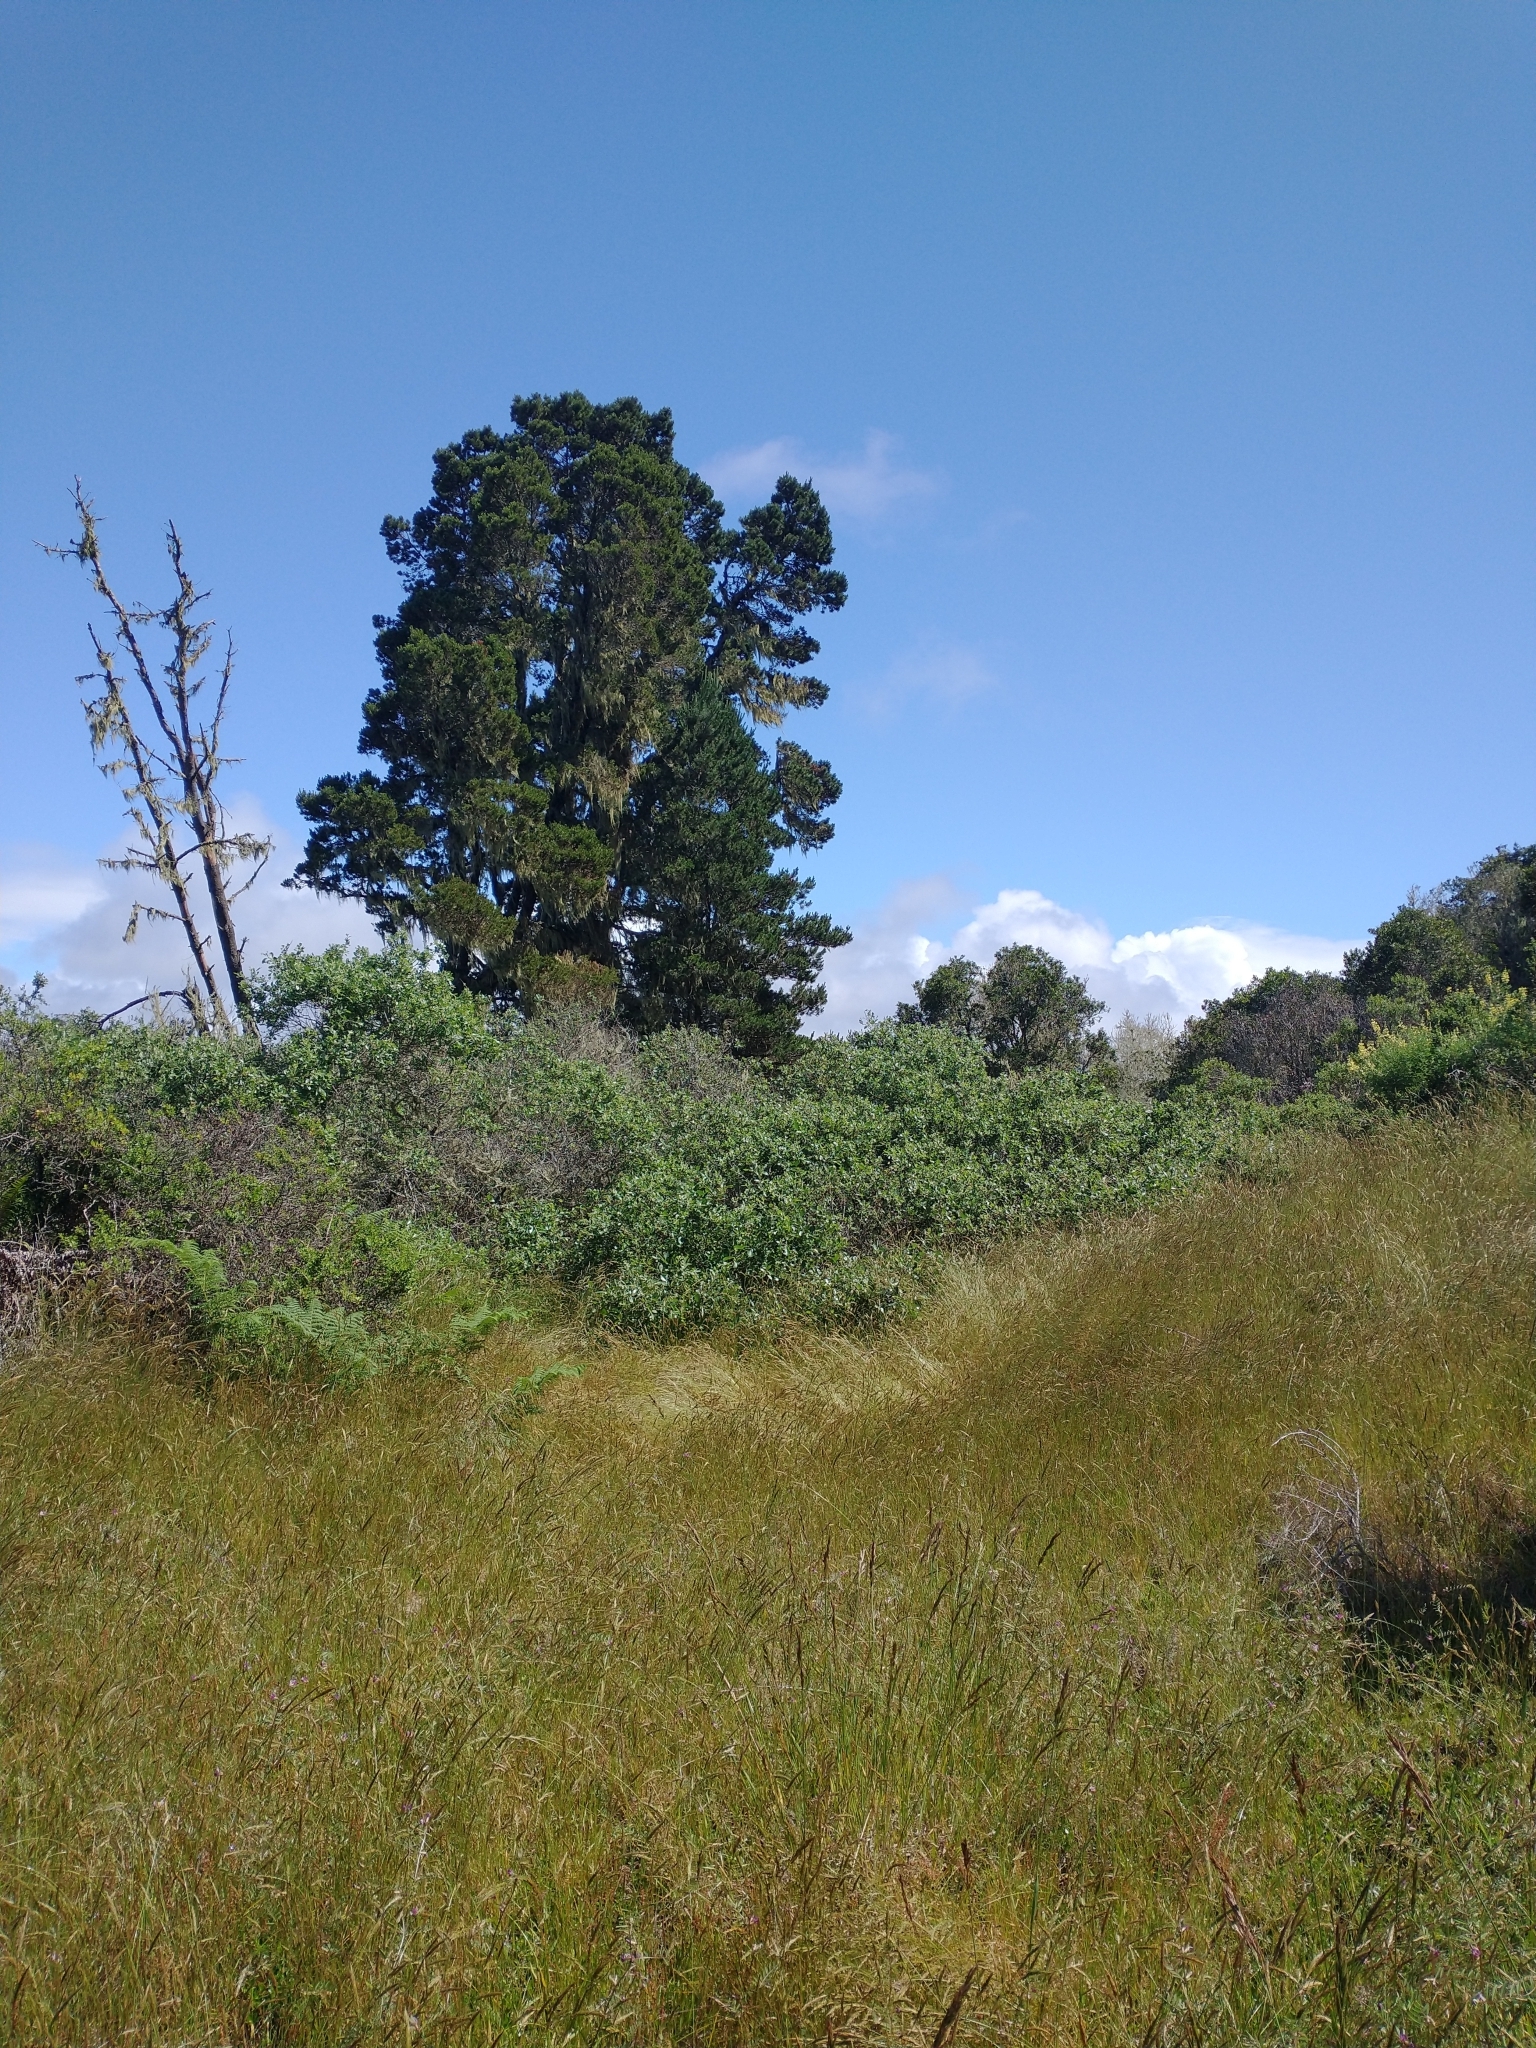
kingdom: Plantae
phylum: Tracheophyta
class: Pinopsida
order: Pinales
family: Pinaceae
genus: Pinus
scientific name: Pinus contorta
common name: Lodgepole pine
